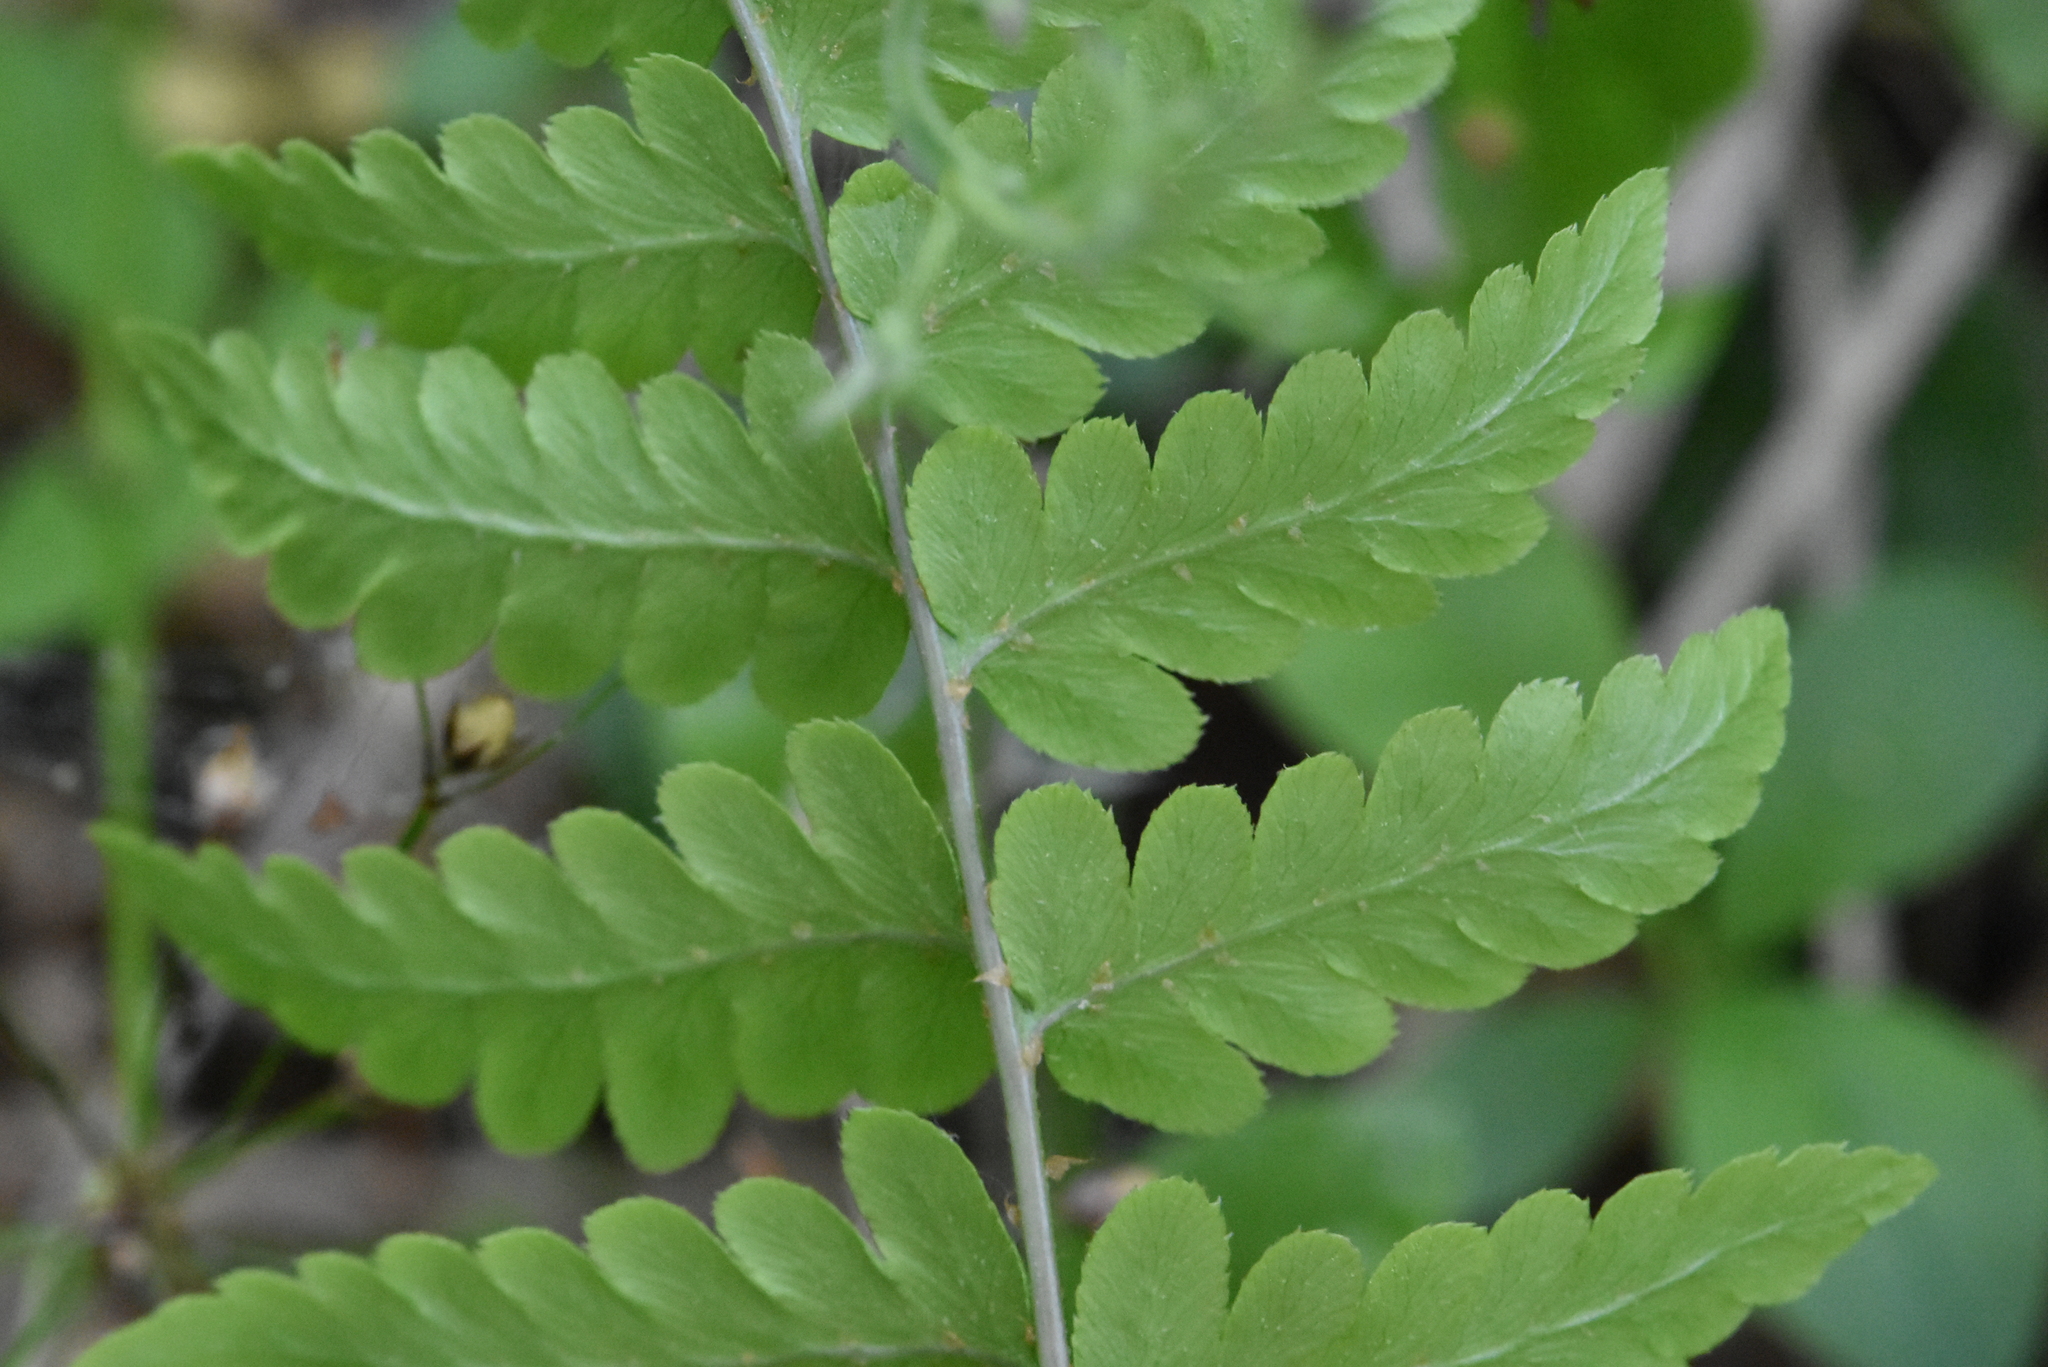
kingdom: Plantae
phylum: Tracheophyta
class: Polypodiopsida
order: Polypodiales
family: Dryopteridaceae
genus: Dryopteris
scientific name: Dryopteris cristata
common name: Crested wood fern
